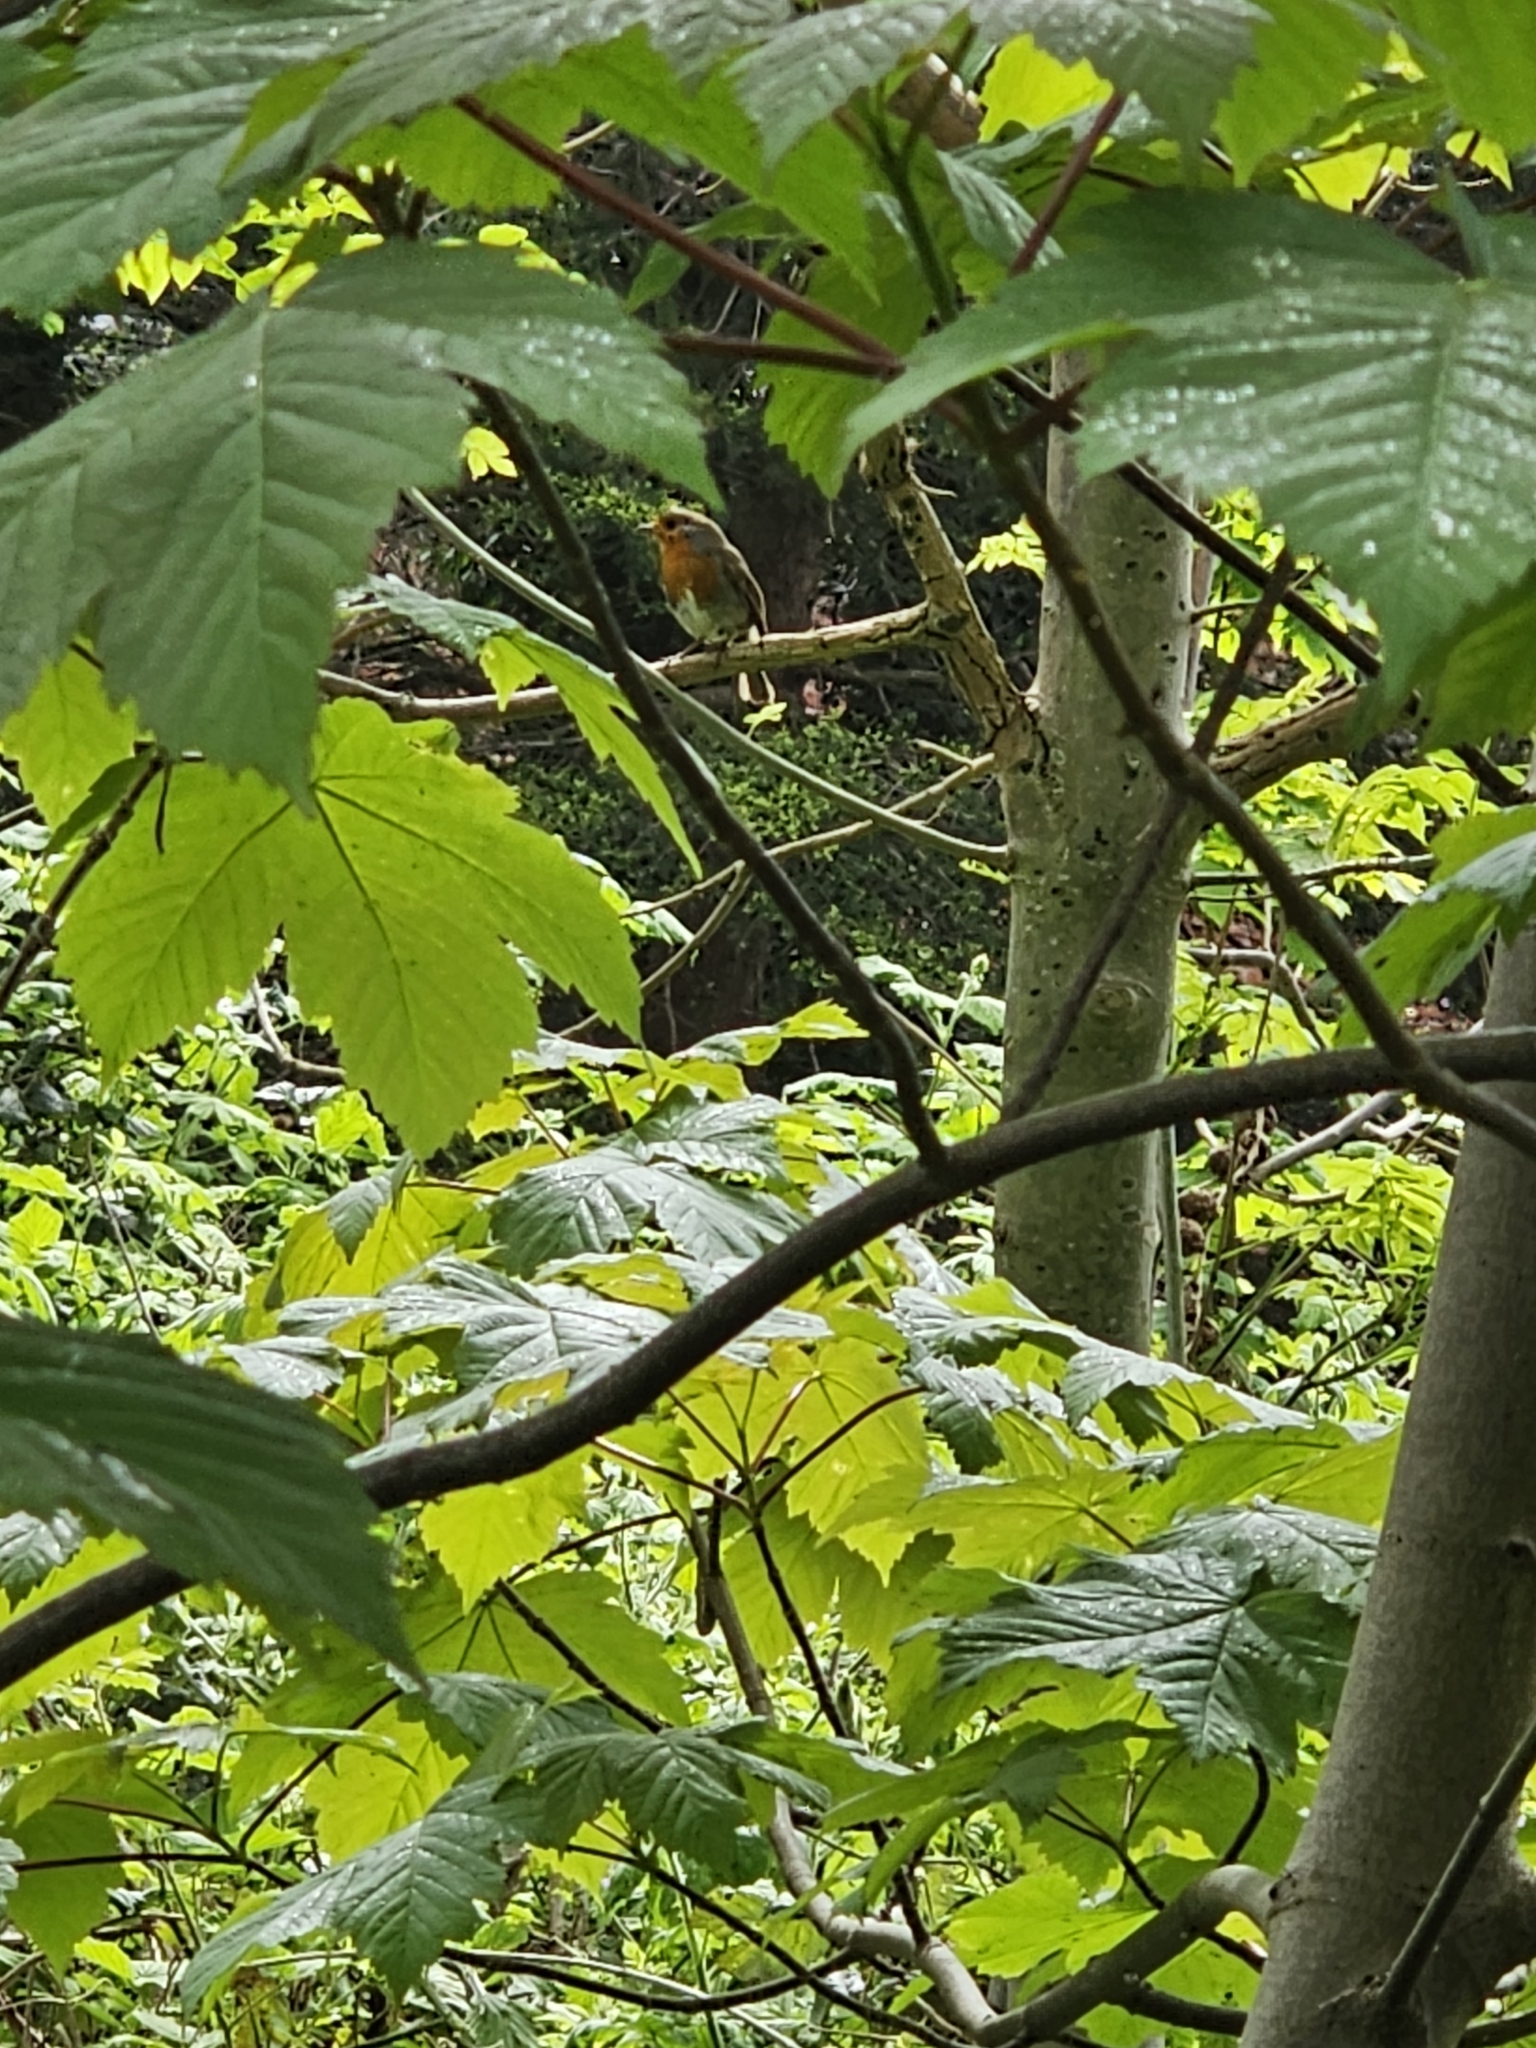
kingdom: Animalia
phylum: Chordata
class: Aves
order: Passeriformes
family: Muscicapidae
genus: Erithacus
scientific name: Erithacus rubecula
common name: European robin
